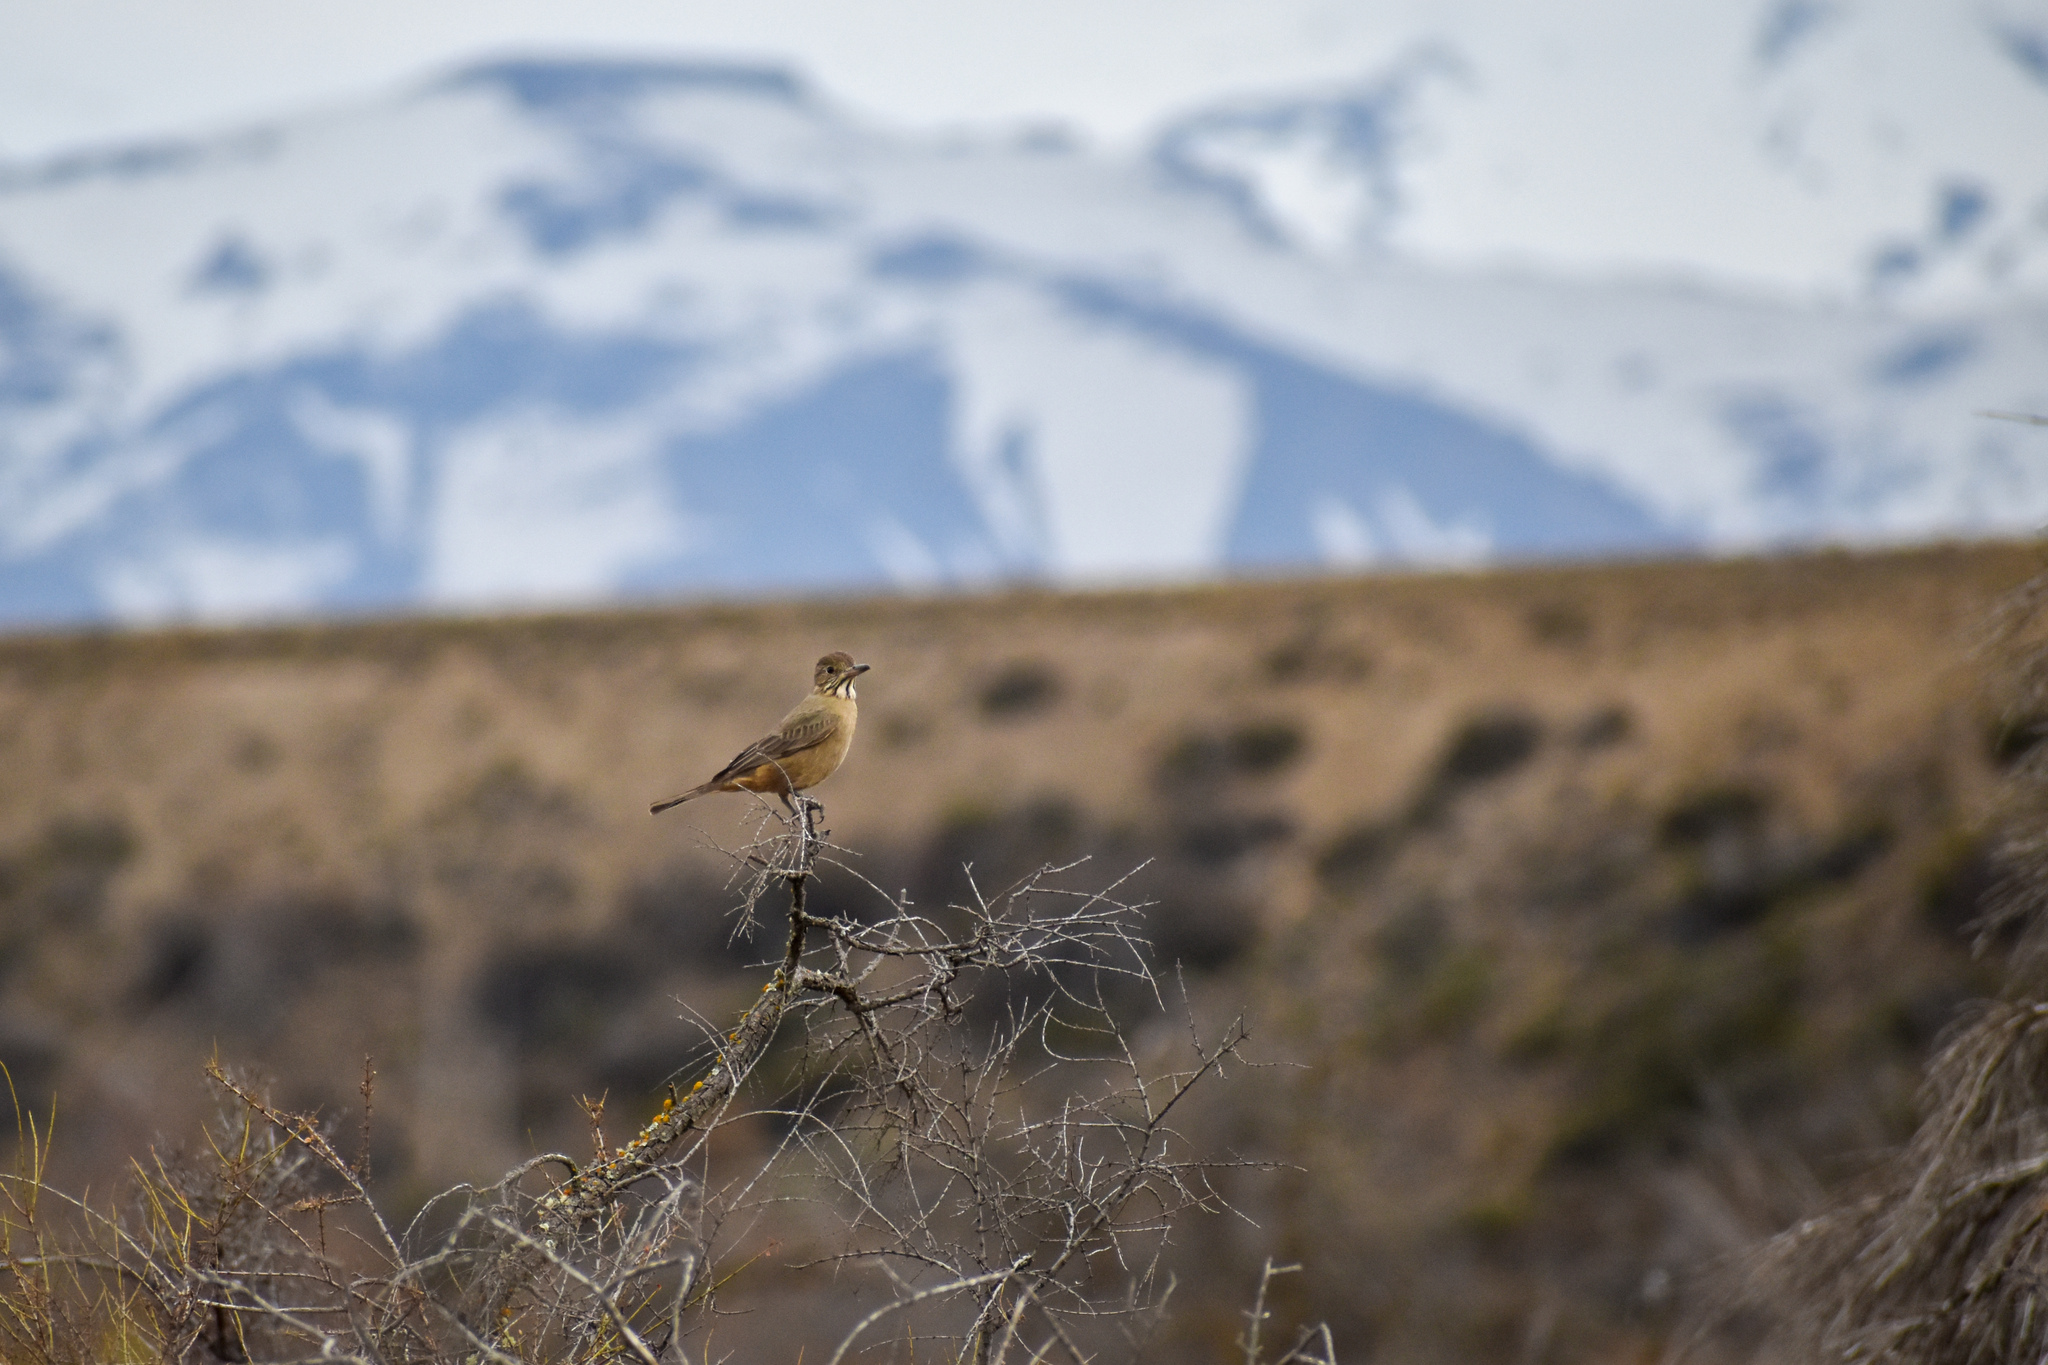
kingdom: Animalia
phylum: Chordata
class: Aves
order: Passeriformes
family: Tyrannidae
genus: Agriornis
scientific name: Agriornis lividus
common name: Great shrike-tyrant
